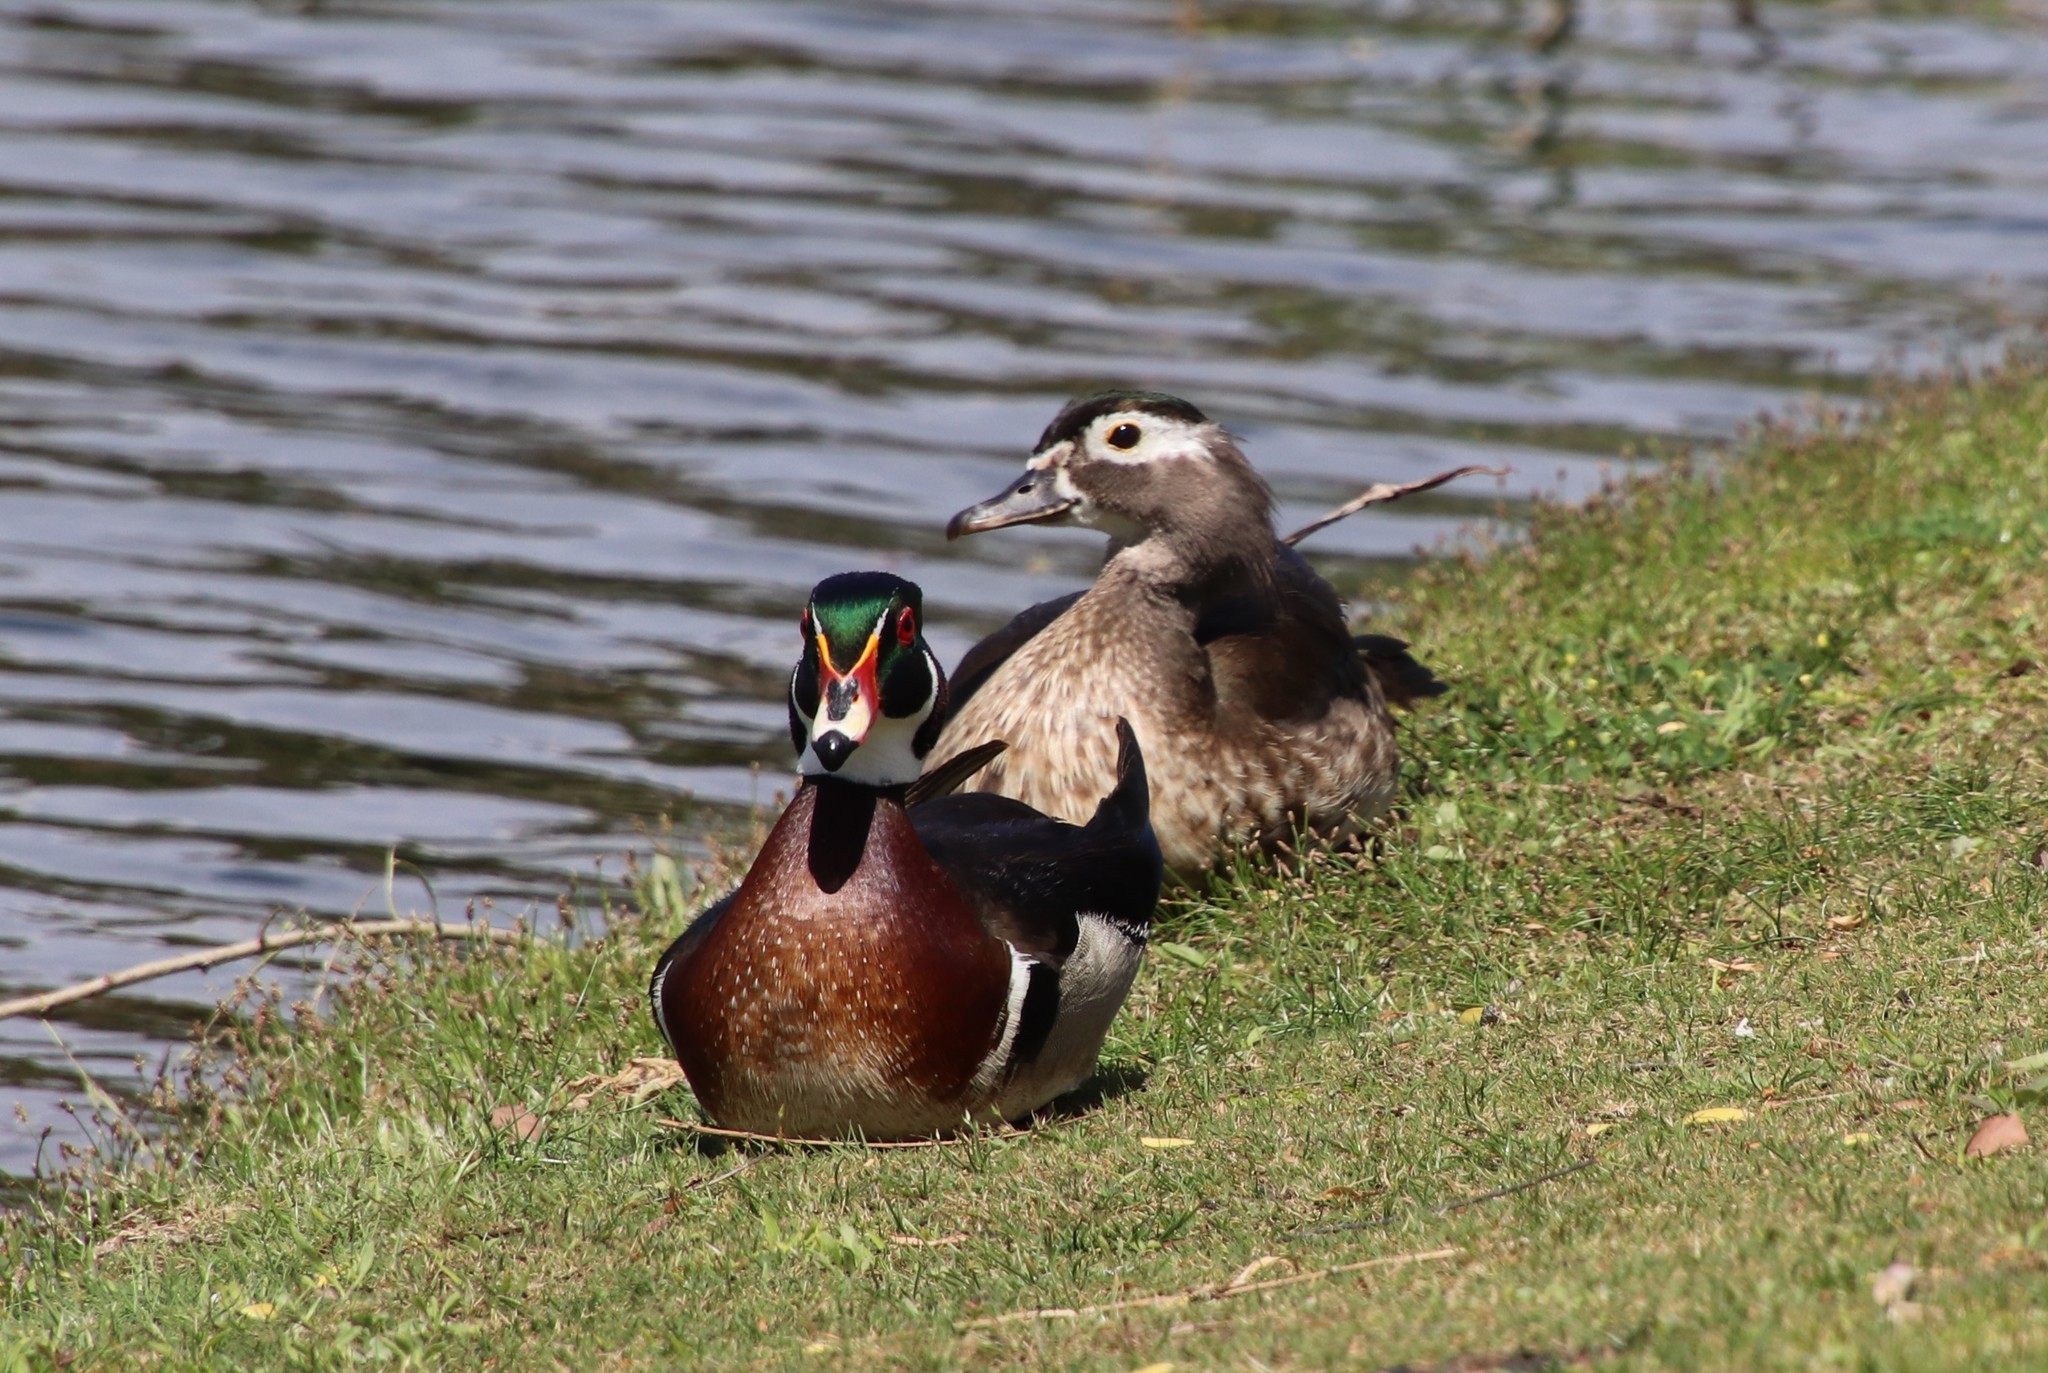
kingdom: Animalia
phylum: Chordata
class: Aves
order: Anseriformes
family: Anatidae
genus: Aix
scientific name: Aix sponsa
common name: Wood duck
